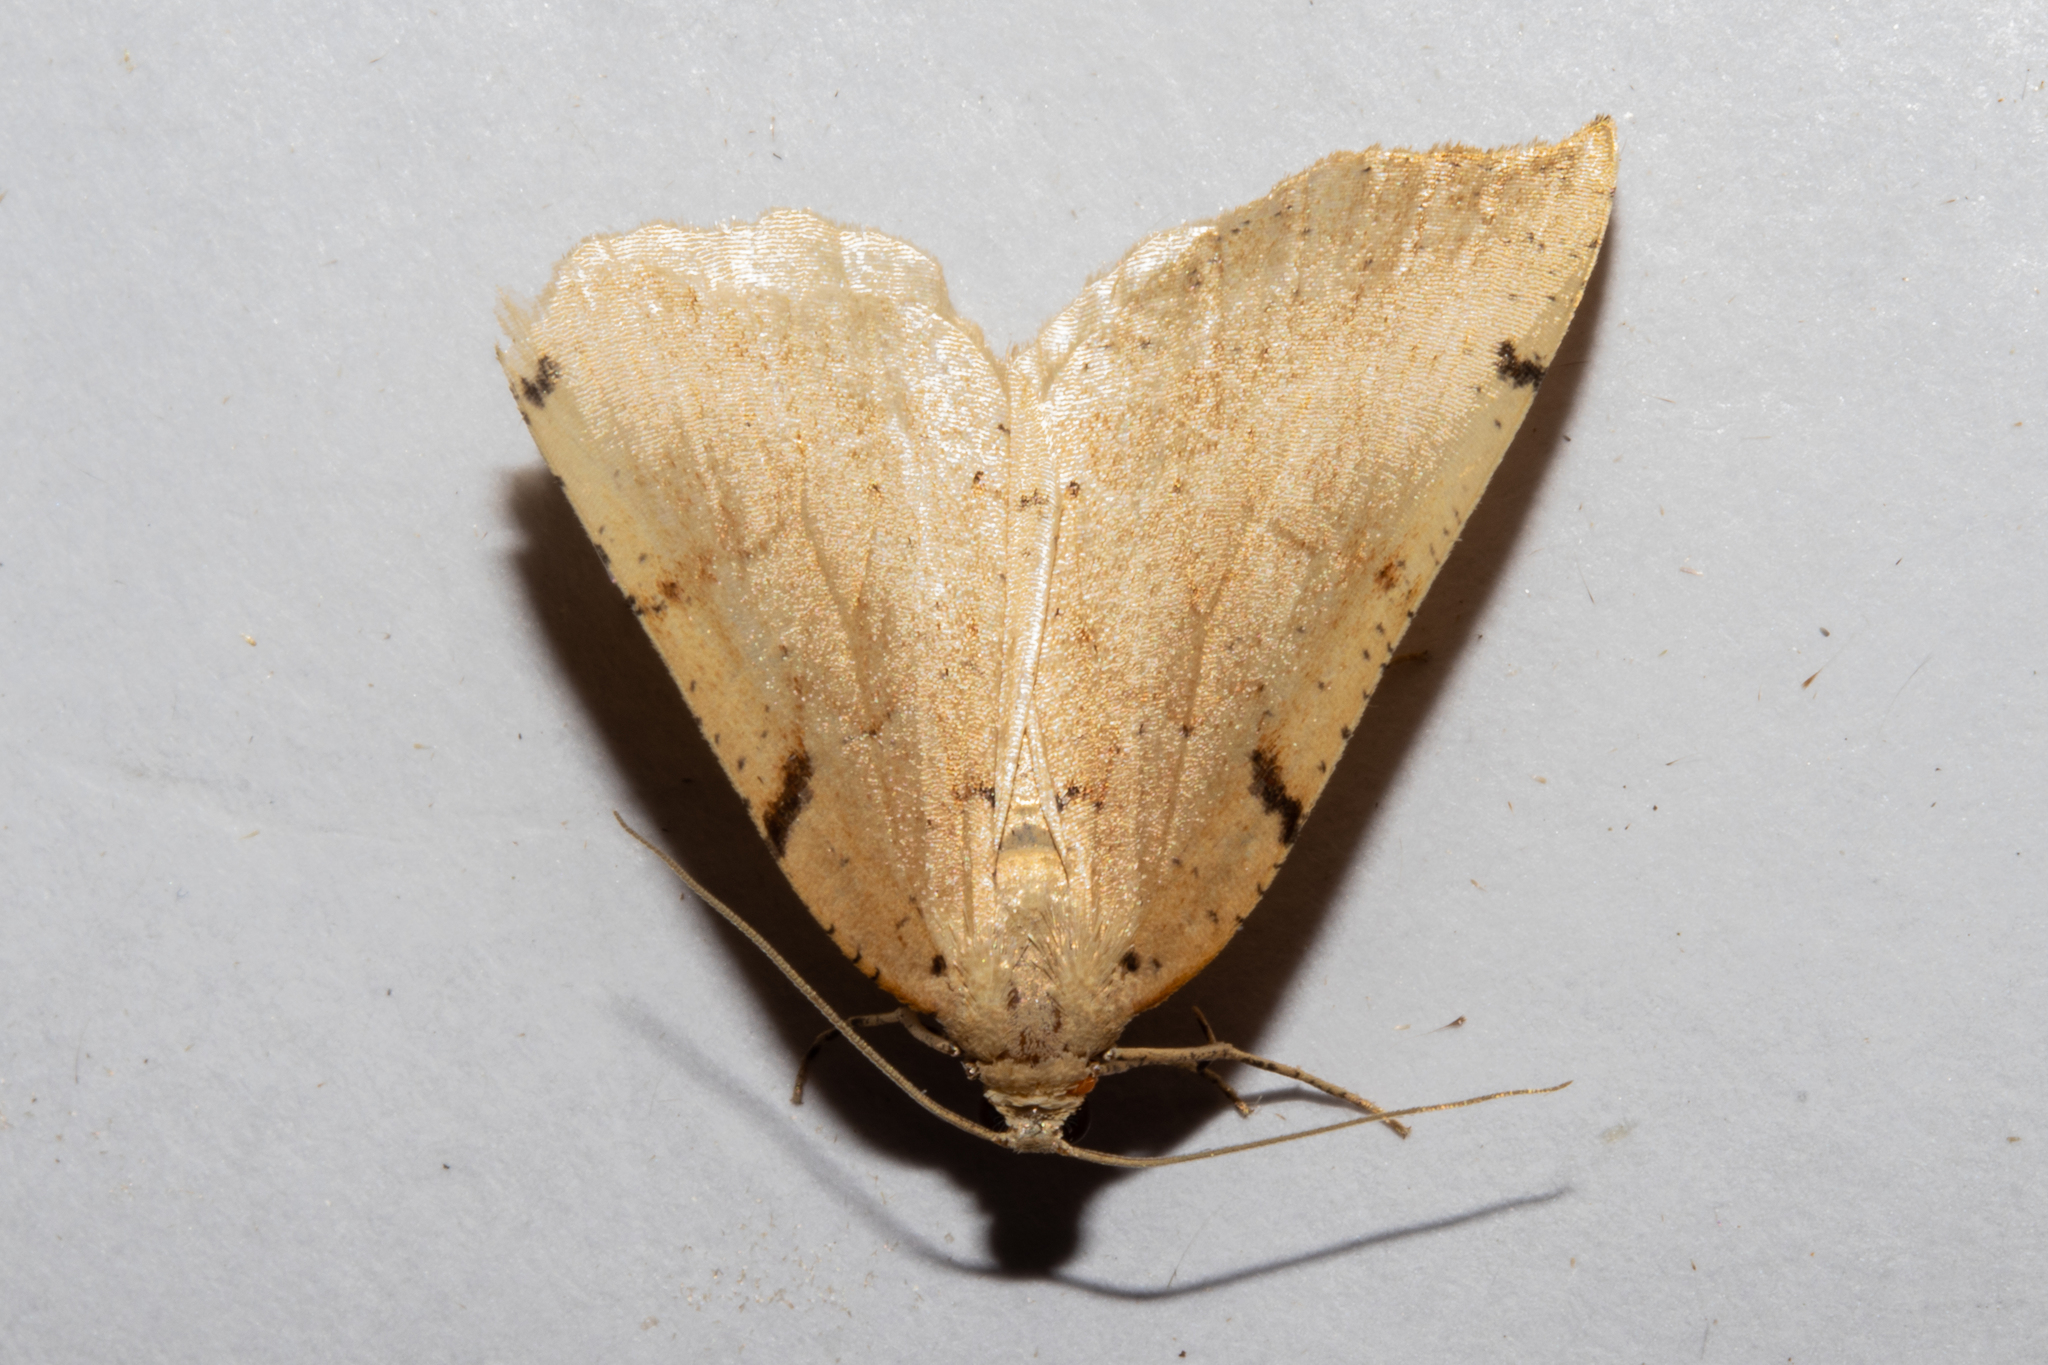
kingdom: Animalia
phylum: Arthropoda
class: Insecta
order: Lepidoptera
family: Geometridae
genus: Sestra
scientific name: Sestra humeraria
